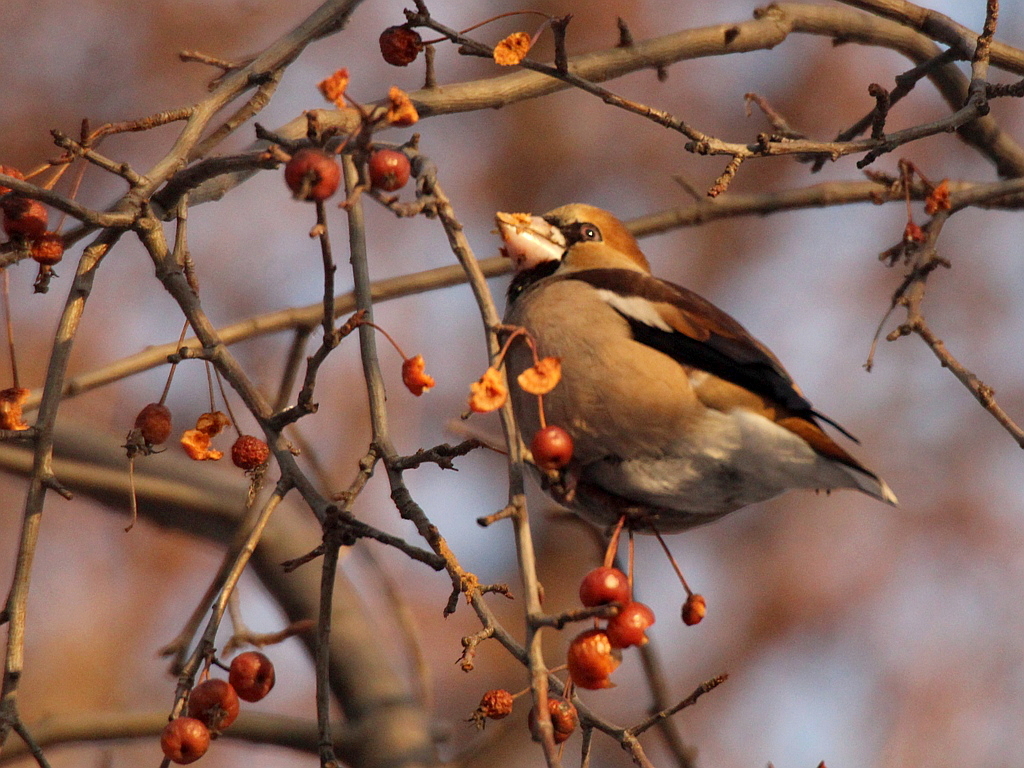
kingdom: Animalia
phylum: Chordata
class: Aves
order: Passeriformes
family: Fringillidae
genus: Coccothraustes
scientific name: Coccothraustes coccothraustes
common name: Hawfinch
